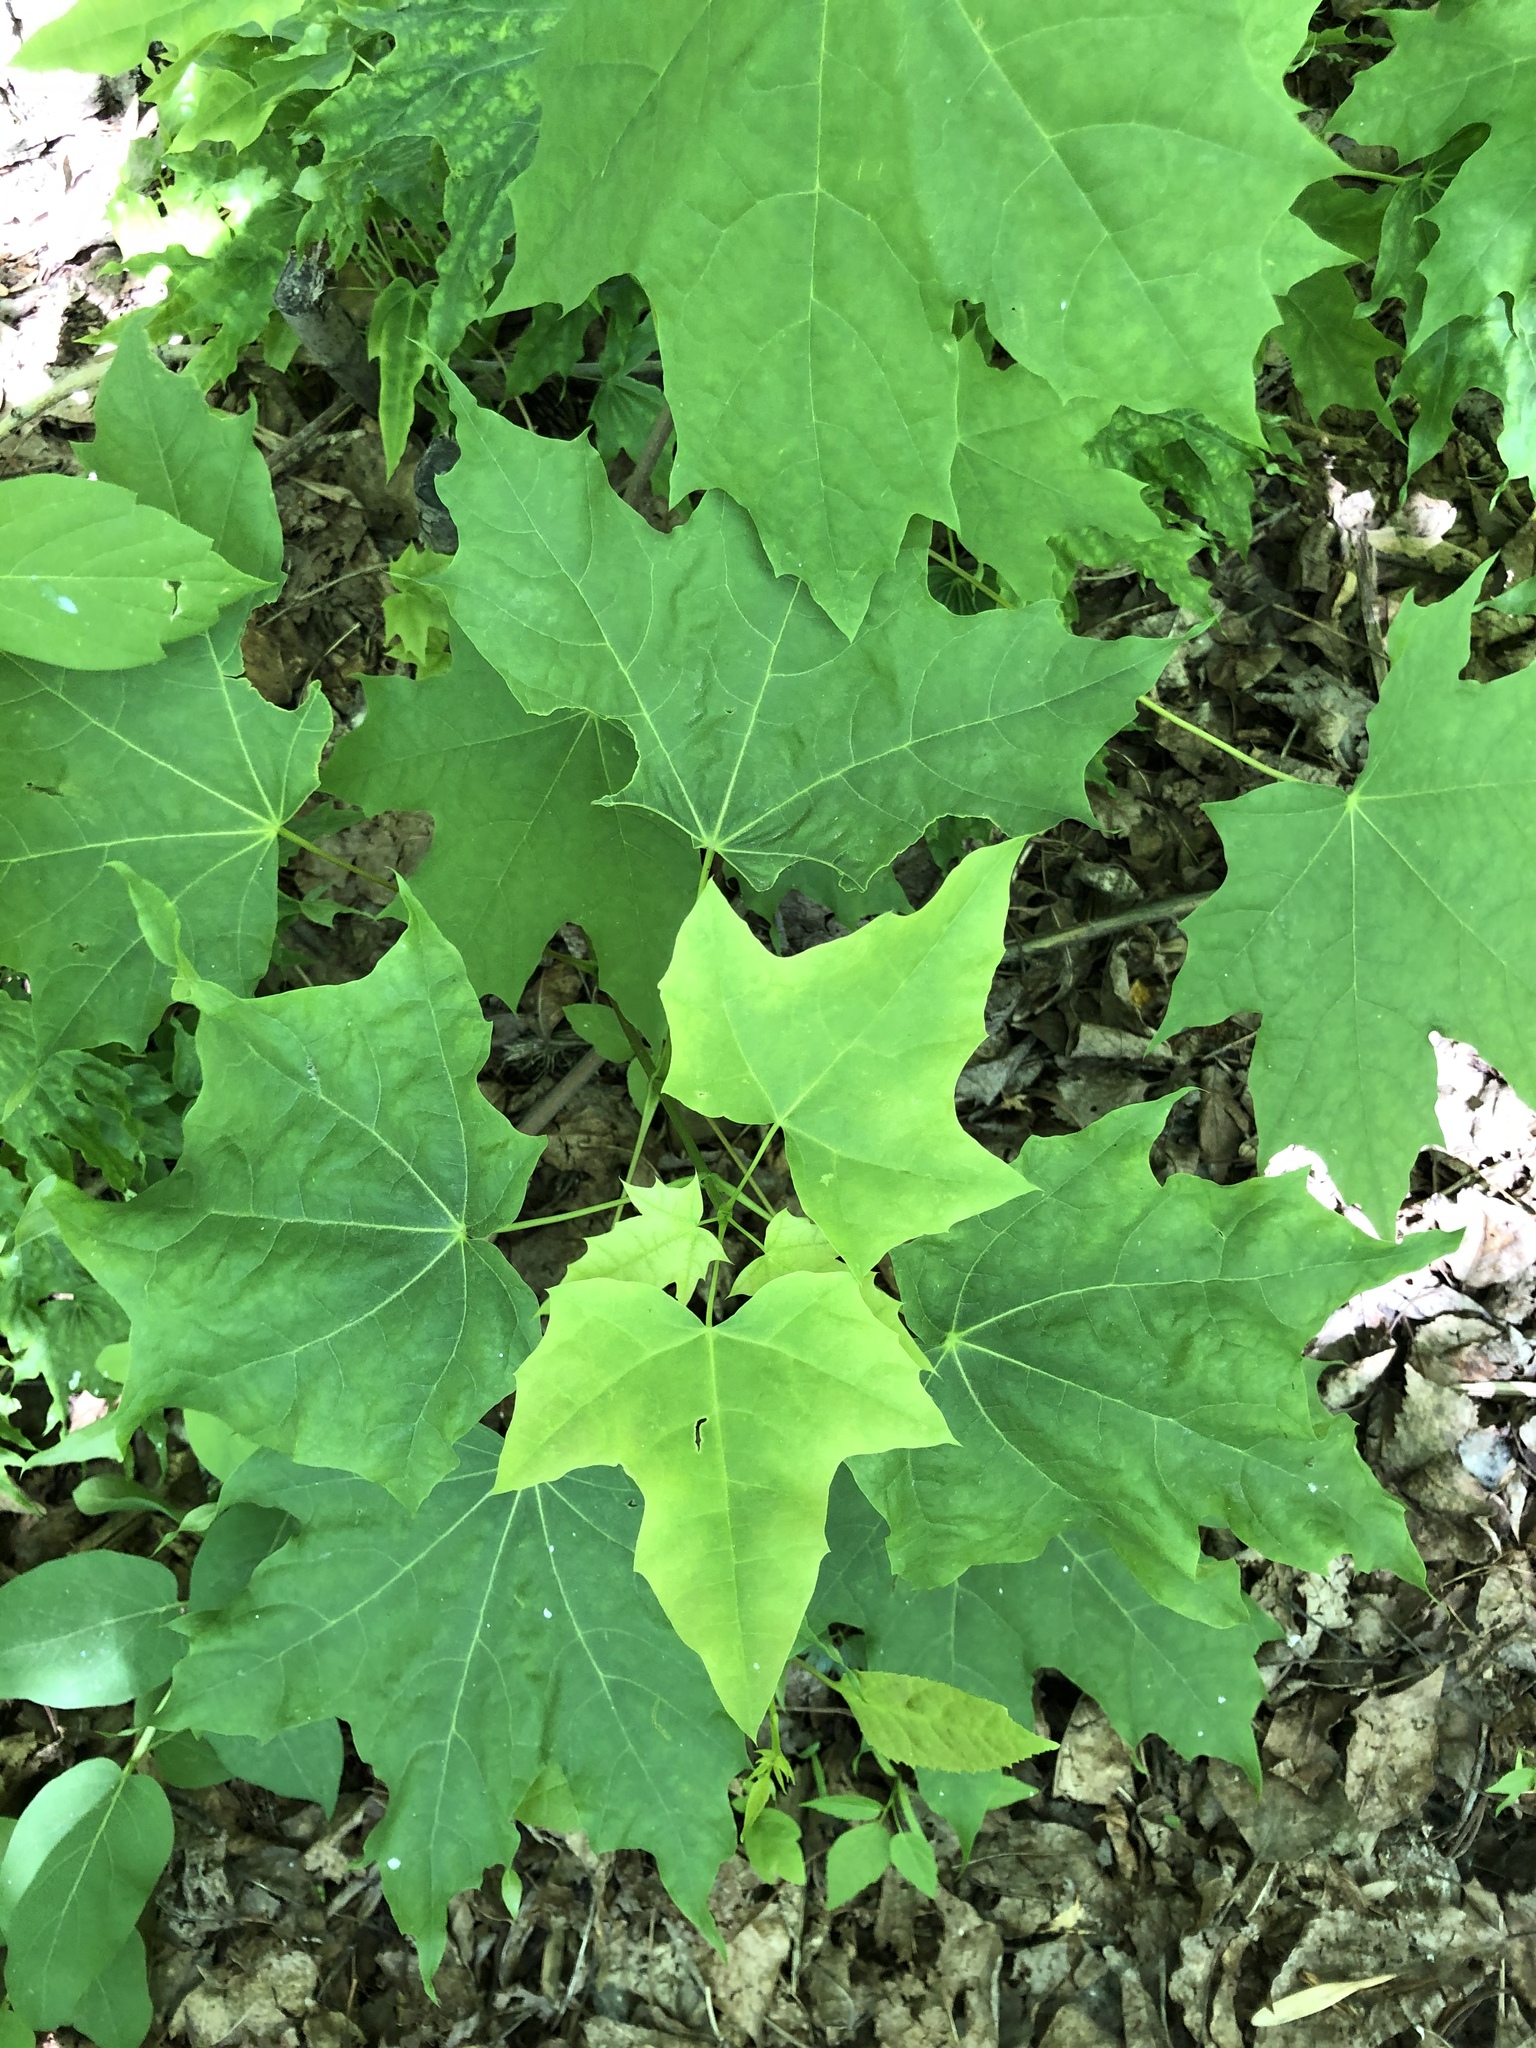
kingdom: Plantae
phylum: Tracheophyta
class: Magnoliopsida
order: Sapindales
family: Sapindaceae
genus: Acer
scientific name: Acer platanoides
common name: Norway maple
